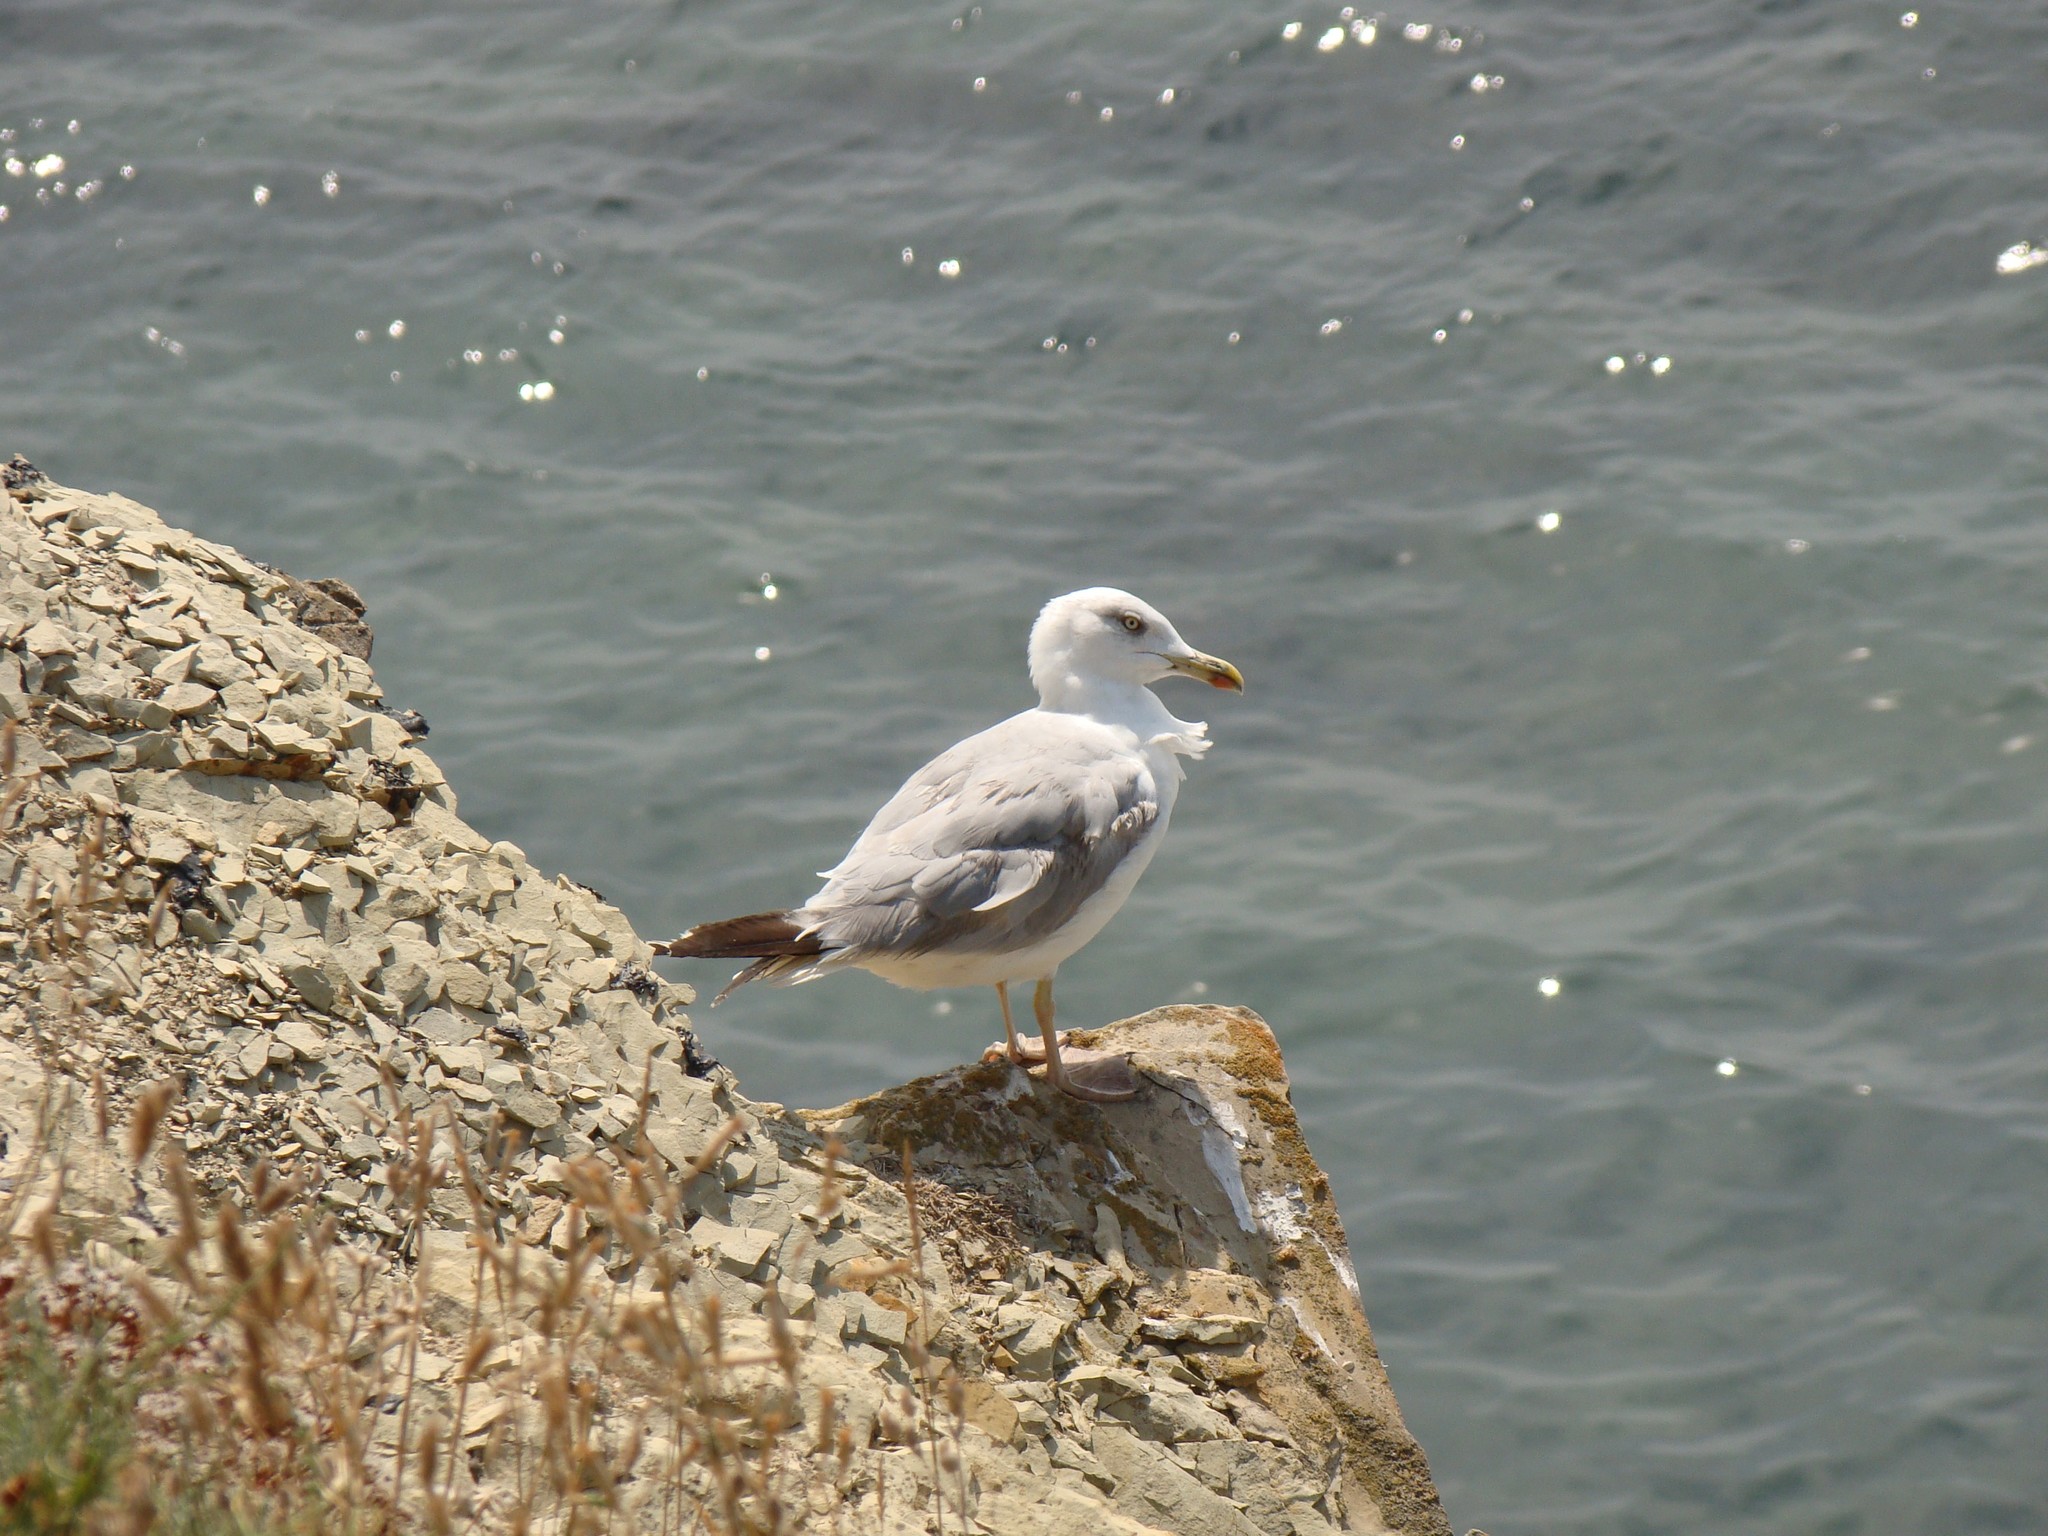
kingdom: Animalia
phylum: Chordata
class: Aves
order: Charadriiformes
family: Laridae
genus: Larus
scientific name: Larus michahellis
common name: Yellow-legged gull
